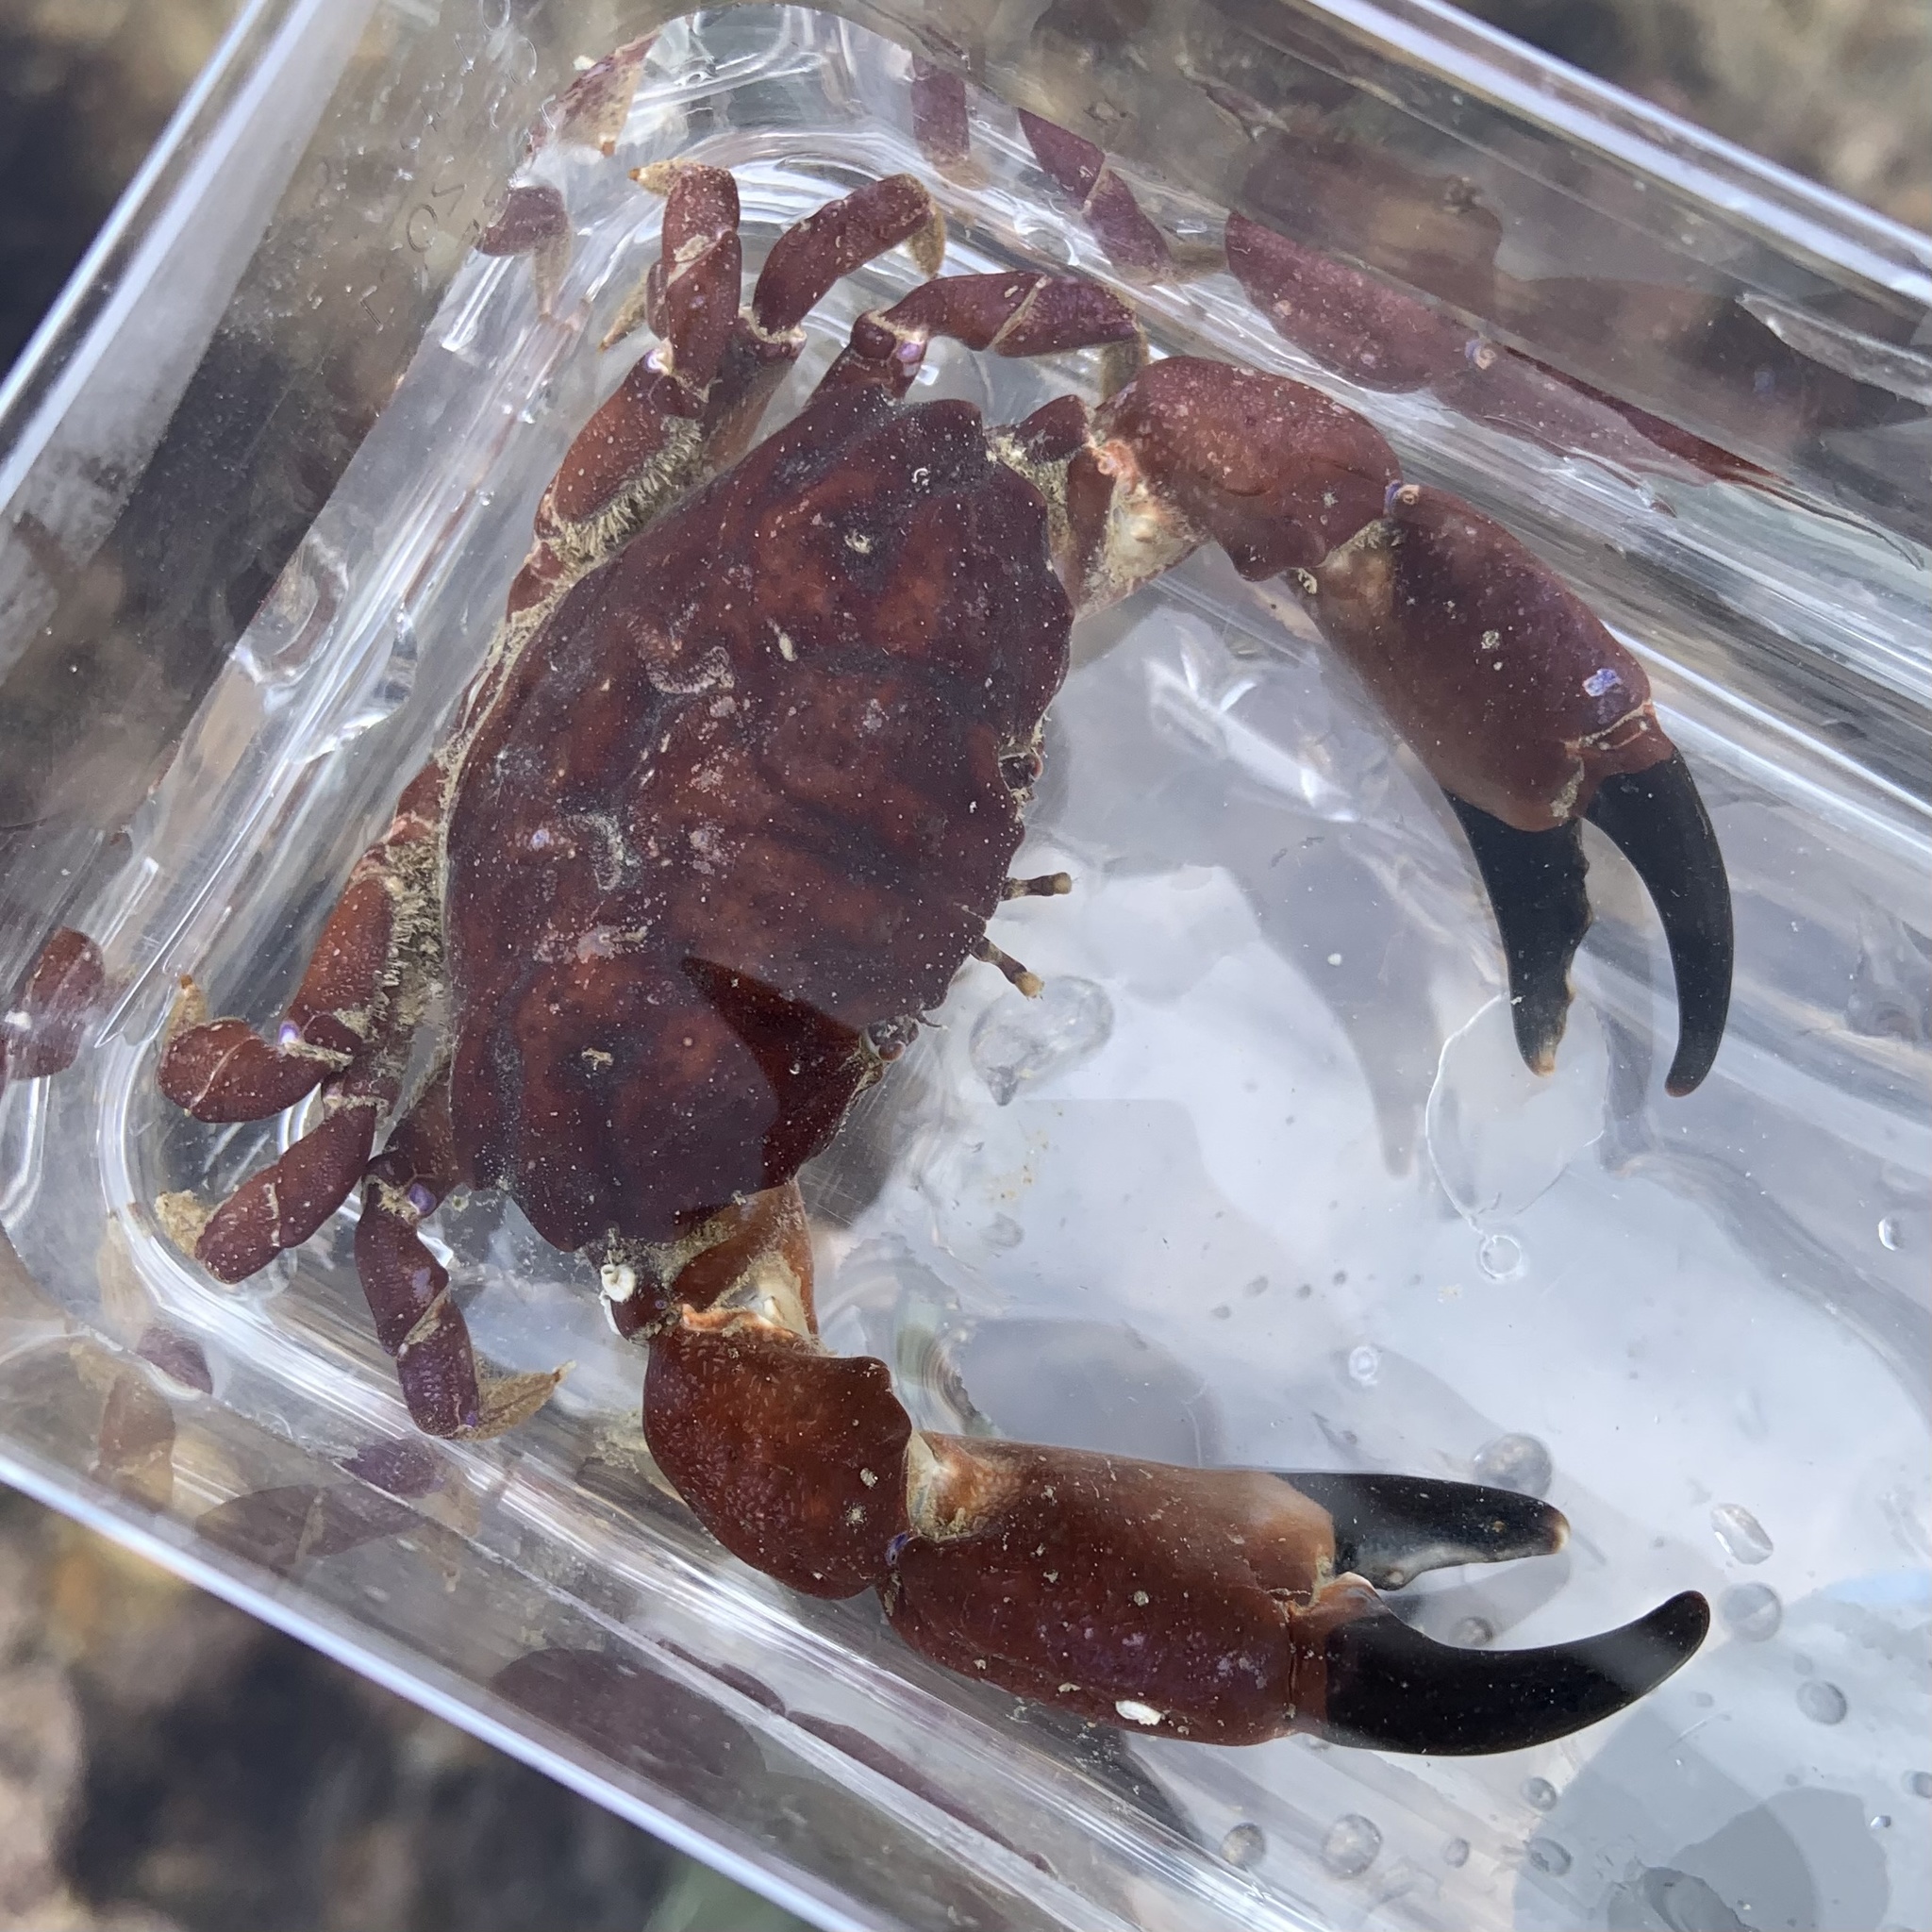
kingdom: Animalia
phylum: Arthropoda
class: Malacostraca
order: Decapoda
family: Xanthidae
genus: Xantho
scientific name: Xantho hydrophilus
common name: Montagu's crab
